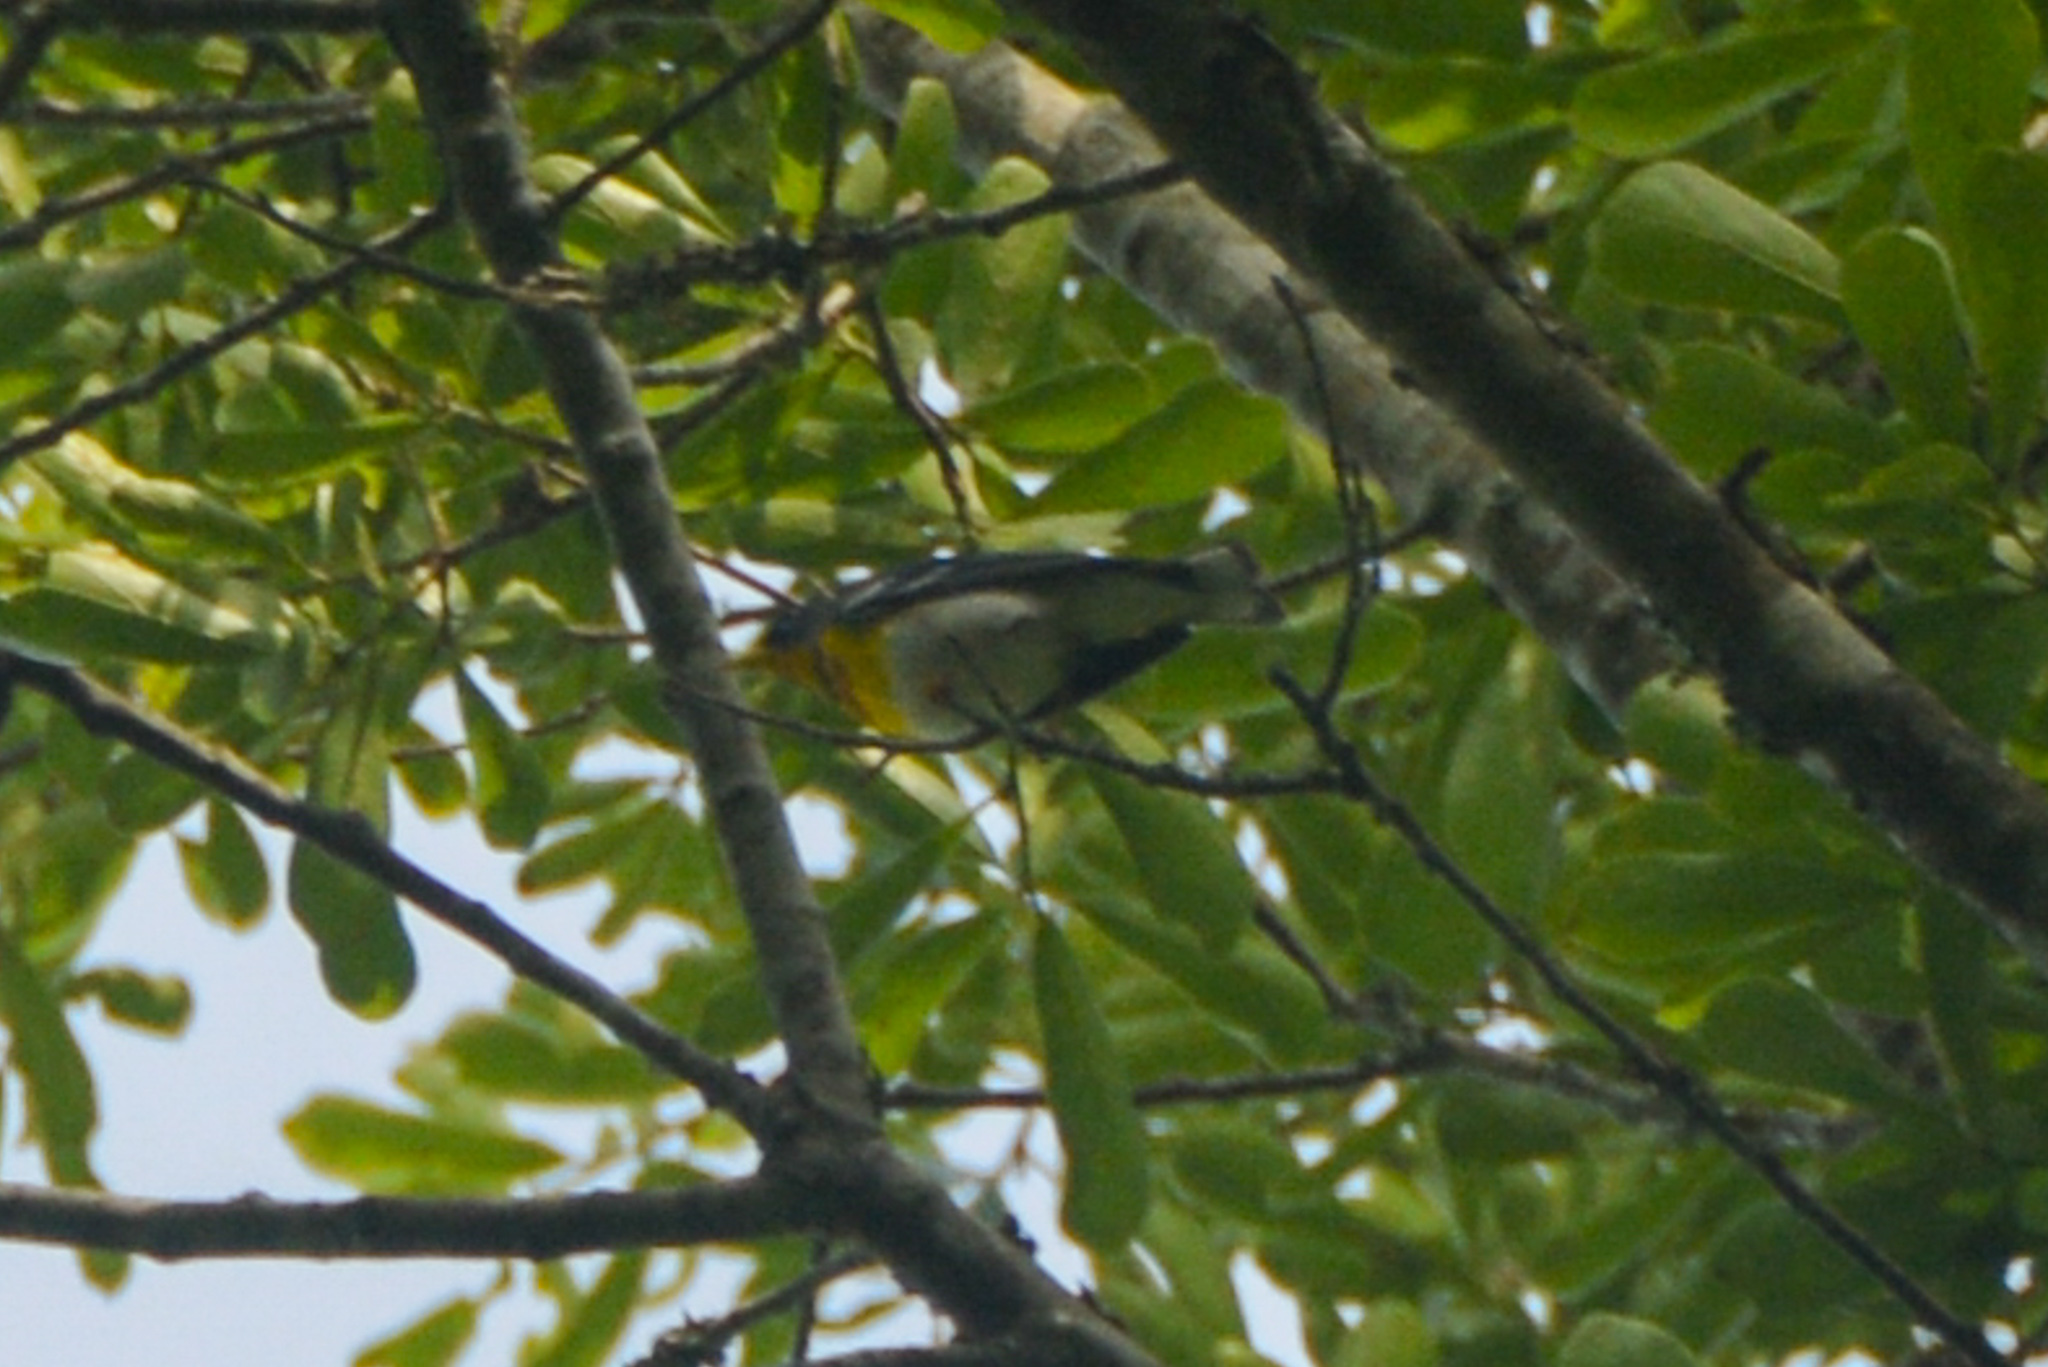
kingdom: Animalia
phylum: Chordata
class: Aves
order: Passeriformes
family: Parulidae
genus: Setophaga
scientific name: Setophaga americana
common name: Northern parula
